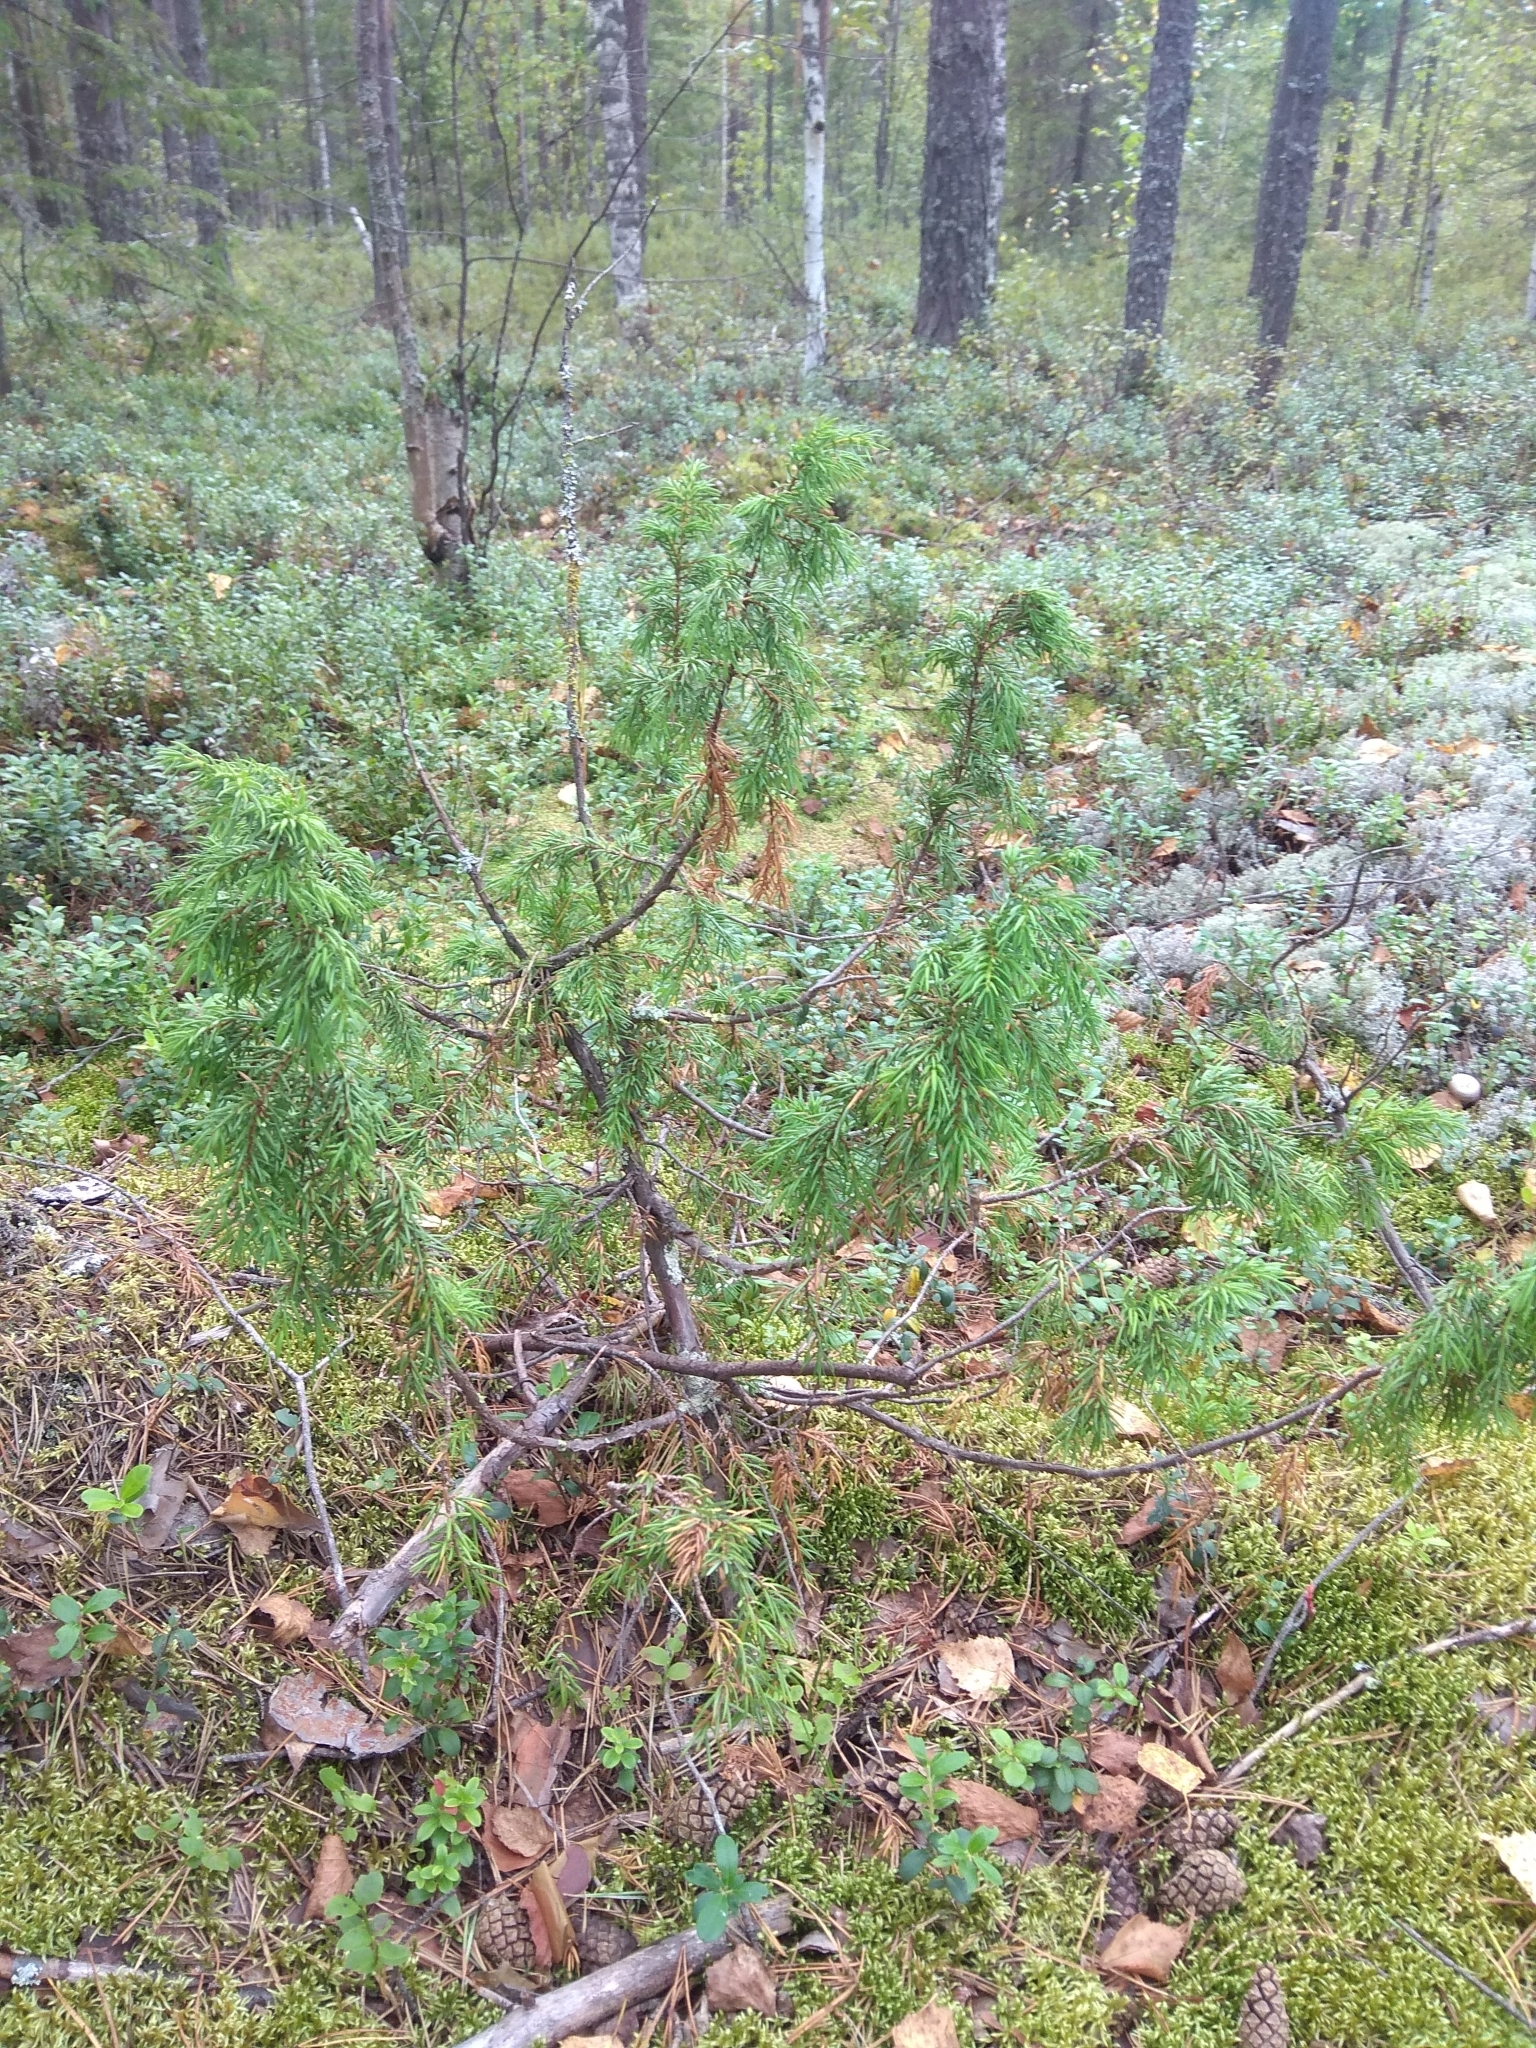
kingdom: Plantae
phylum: Tracheophyta
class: Pinopsida
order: Pinales
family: Cupressaceae
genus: Juniperus
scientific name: Juniperus communis
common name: Common juniper
